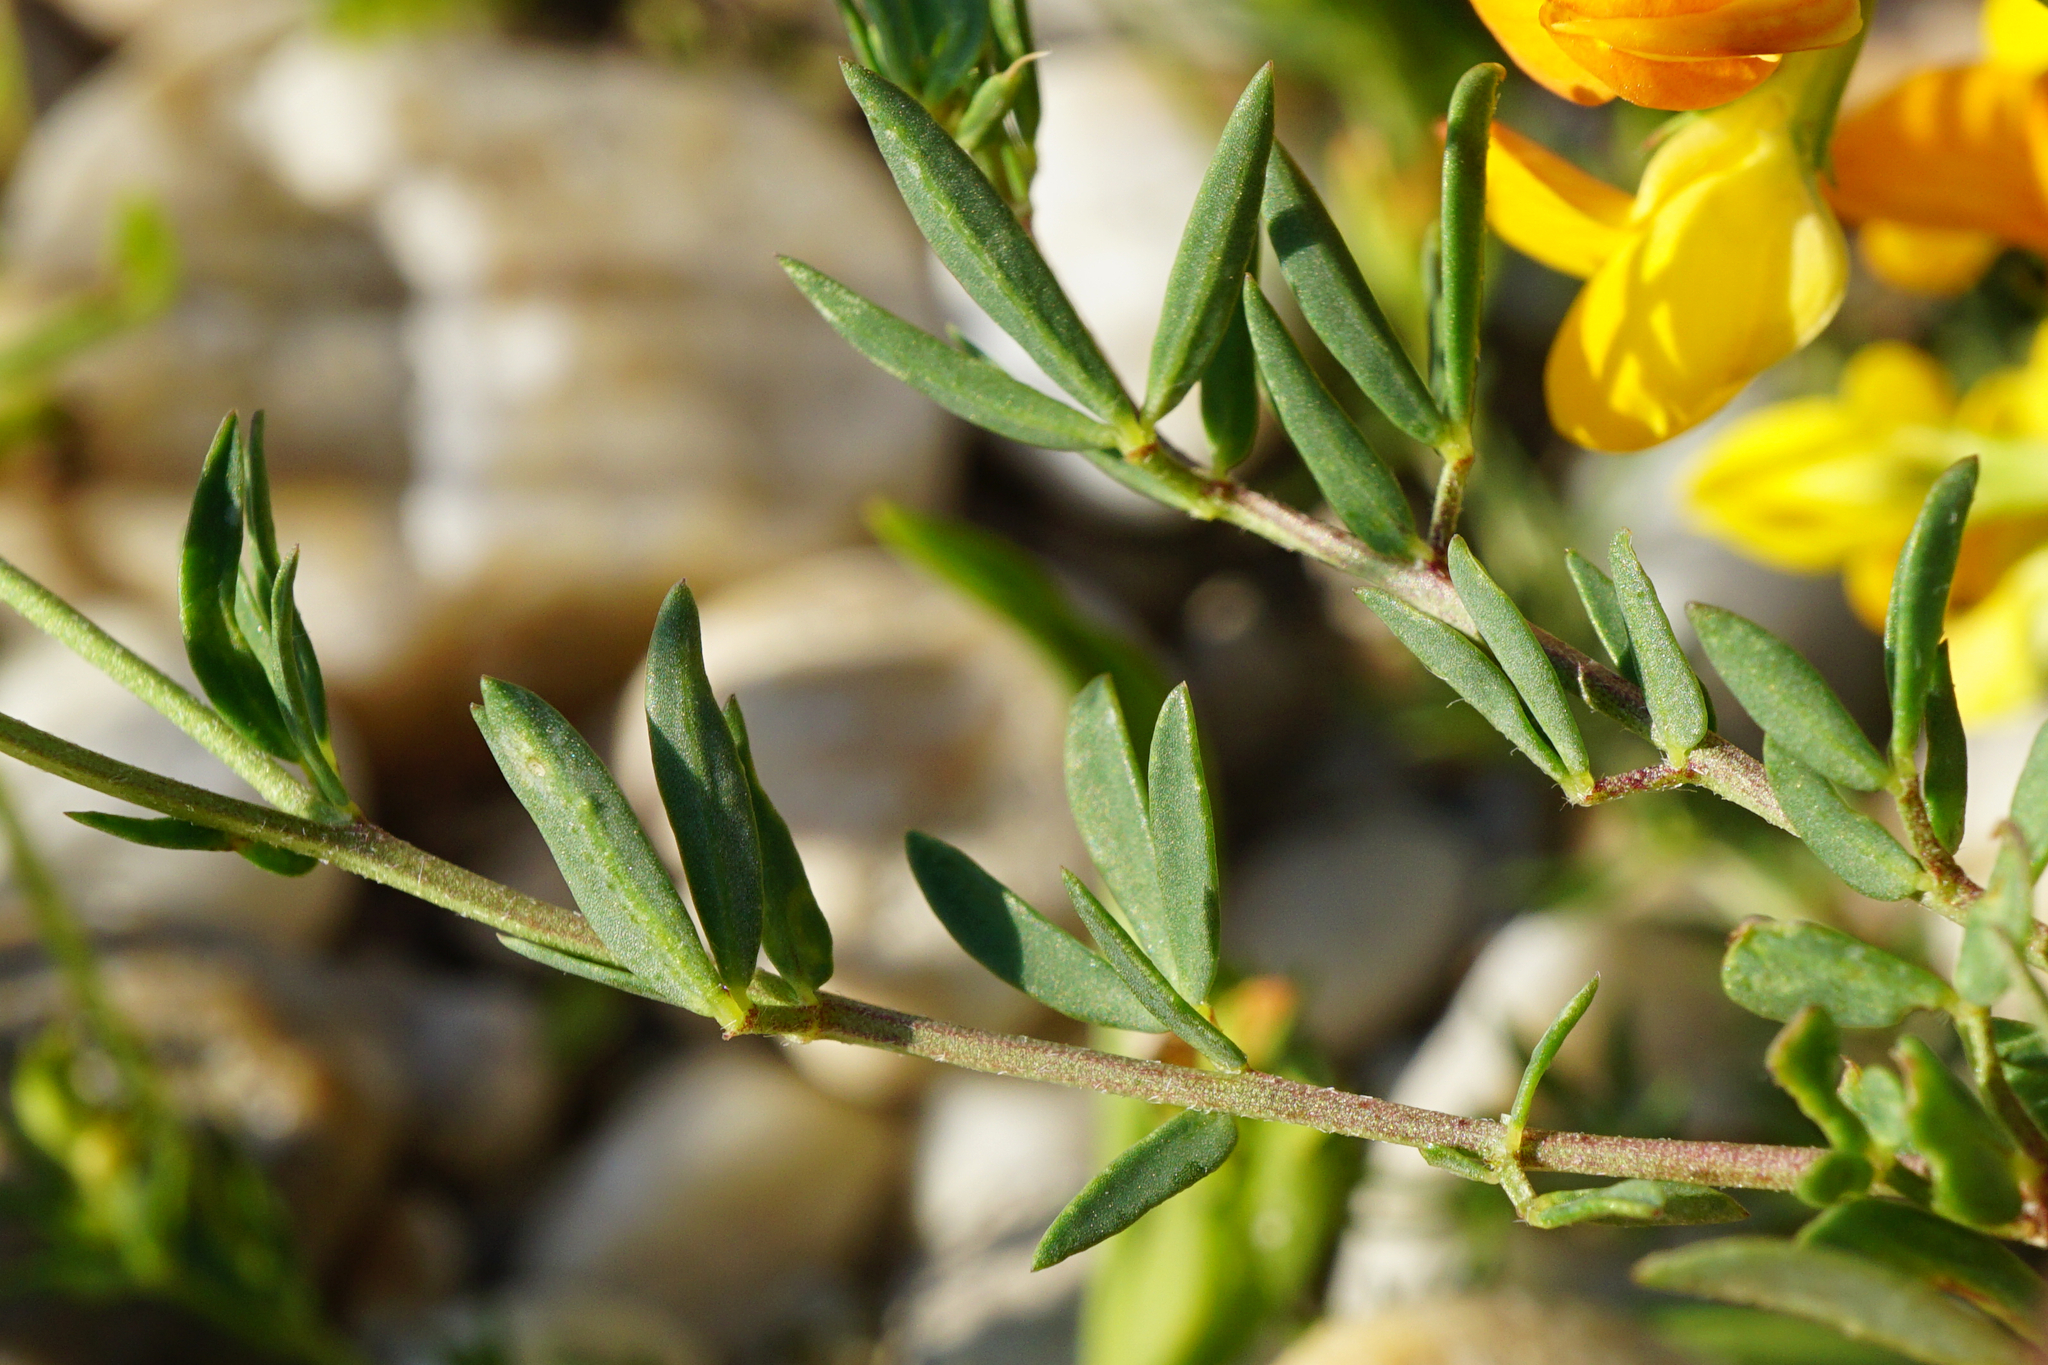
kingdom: Plantae
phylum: Tracheophyta
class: Magnoliopsida
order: Fabales
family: Fabaceae
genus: Lotus
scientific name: Lotus tenuis
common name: Narrow-leaved bird's-foot-trefoil
